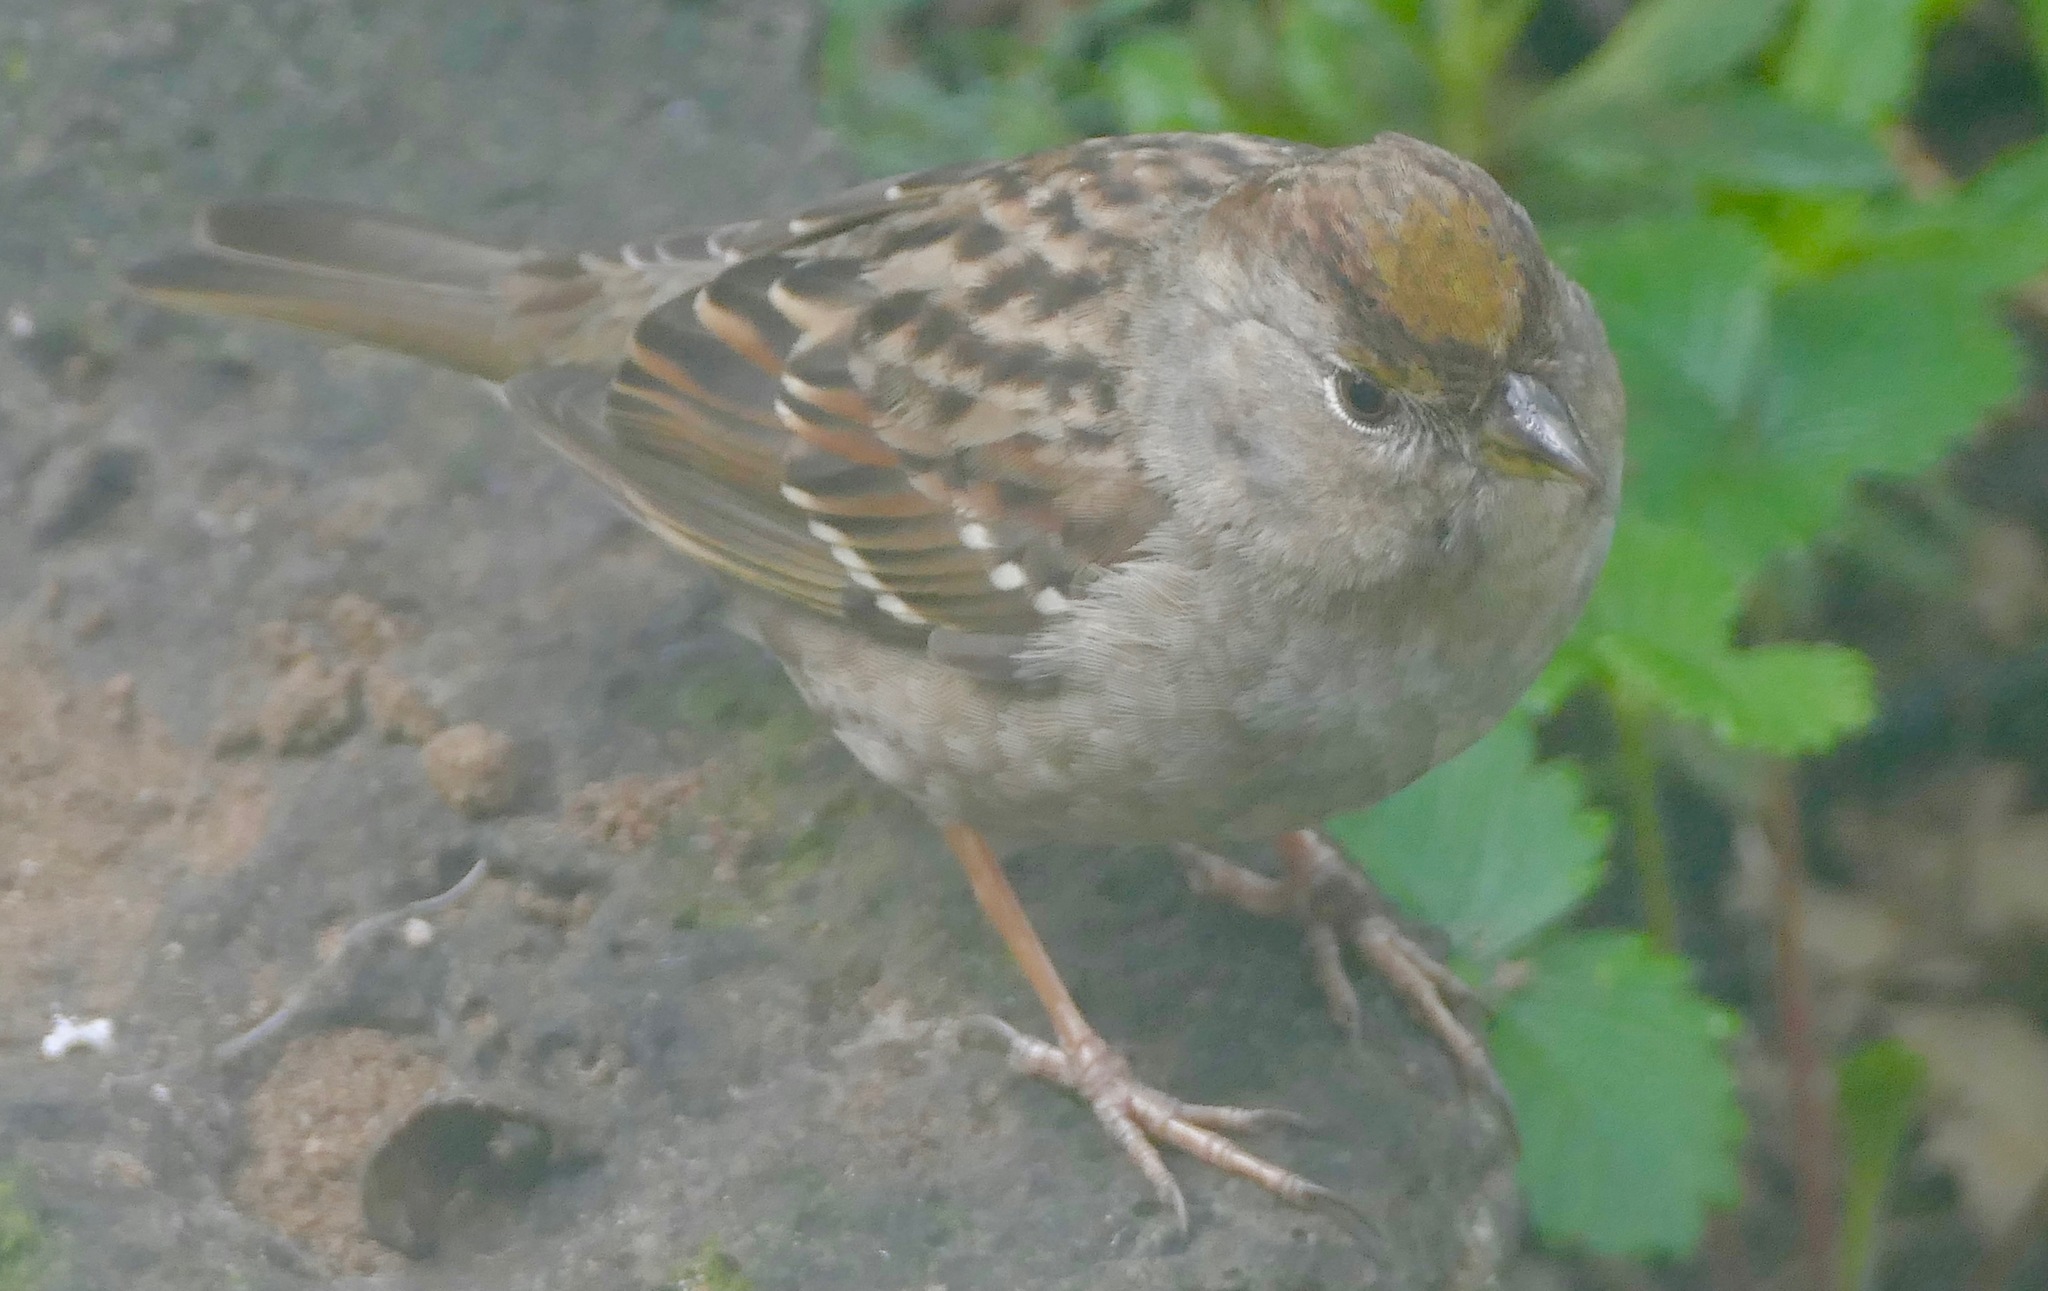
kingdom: Animalia
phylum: Chordata
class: Aves
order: Passeriformes
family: Passerellidae
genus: Zonotrichia
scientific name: Zonotrichia atricapilla
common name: Golden-crowned sparrow
